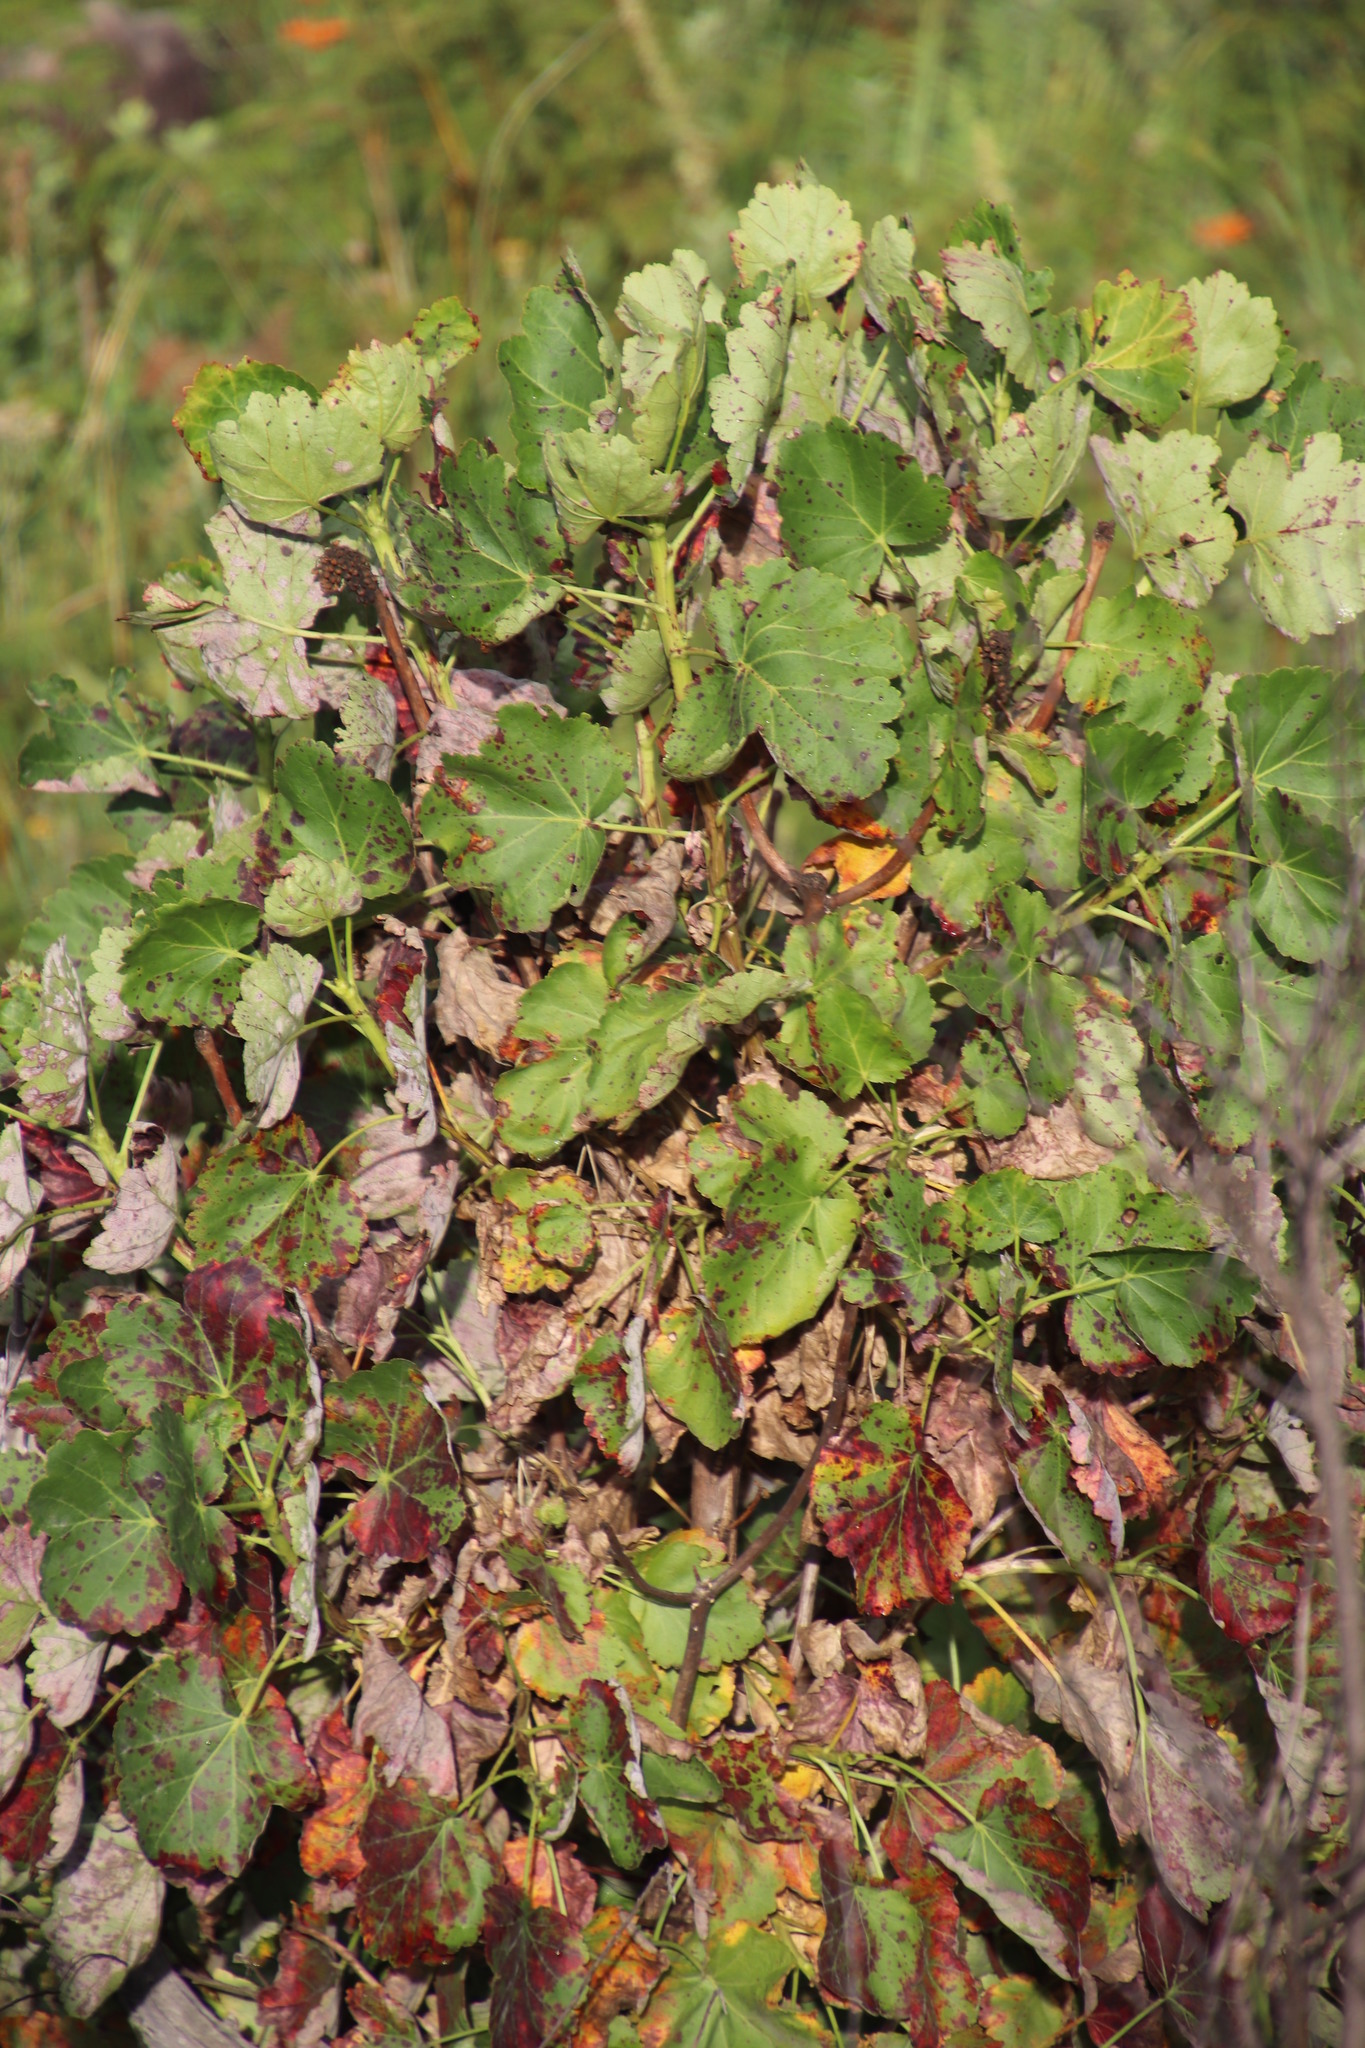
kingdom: Plantae
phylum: Tracheophyta
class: Magnoliopsida
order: Geraniales
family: Francoaceae
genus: Greyia
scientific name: Greyia sutherlandii
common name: Glossy bottlebrush
